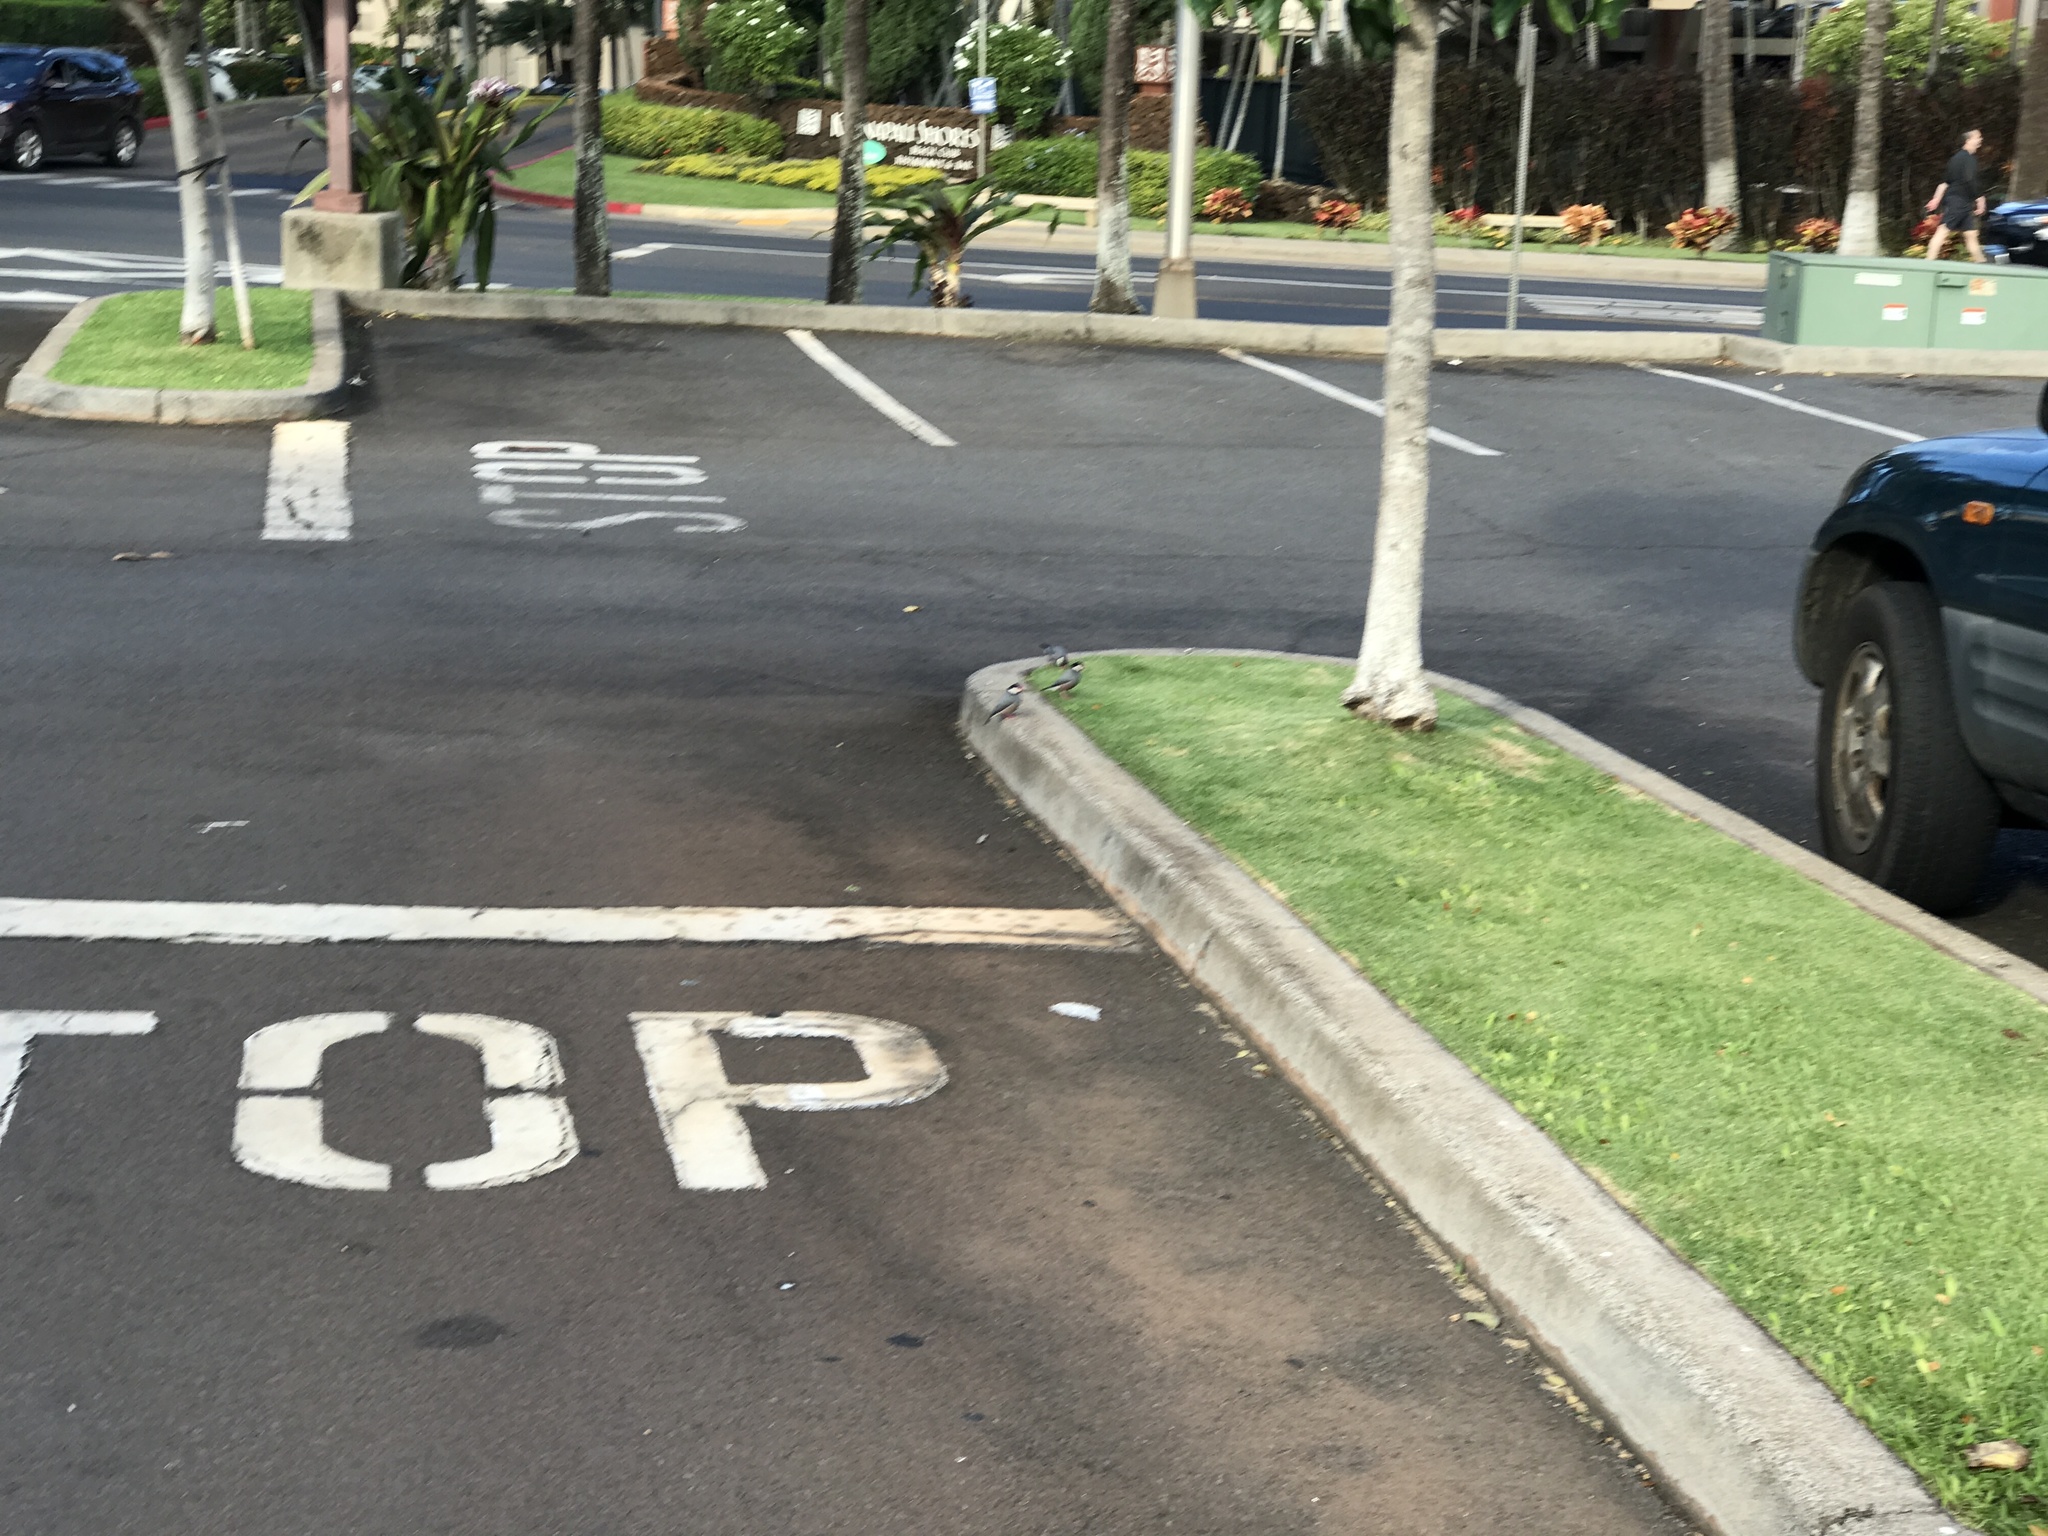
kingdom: Animalia
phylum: Chordata
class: Aves
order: Passeriformes
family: Estrildidae
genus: Lonchura
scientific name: Lonchura oryzivora
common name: Java sparrow
